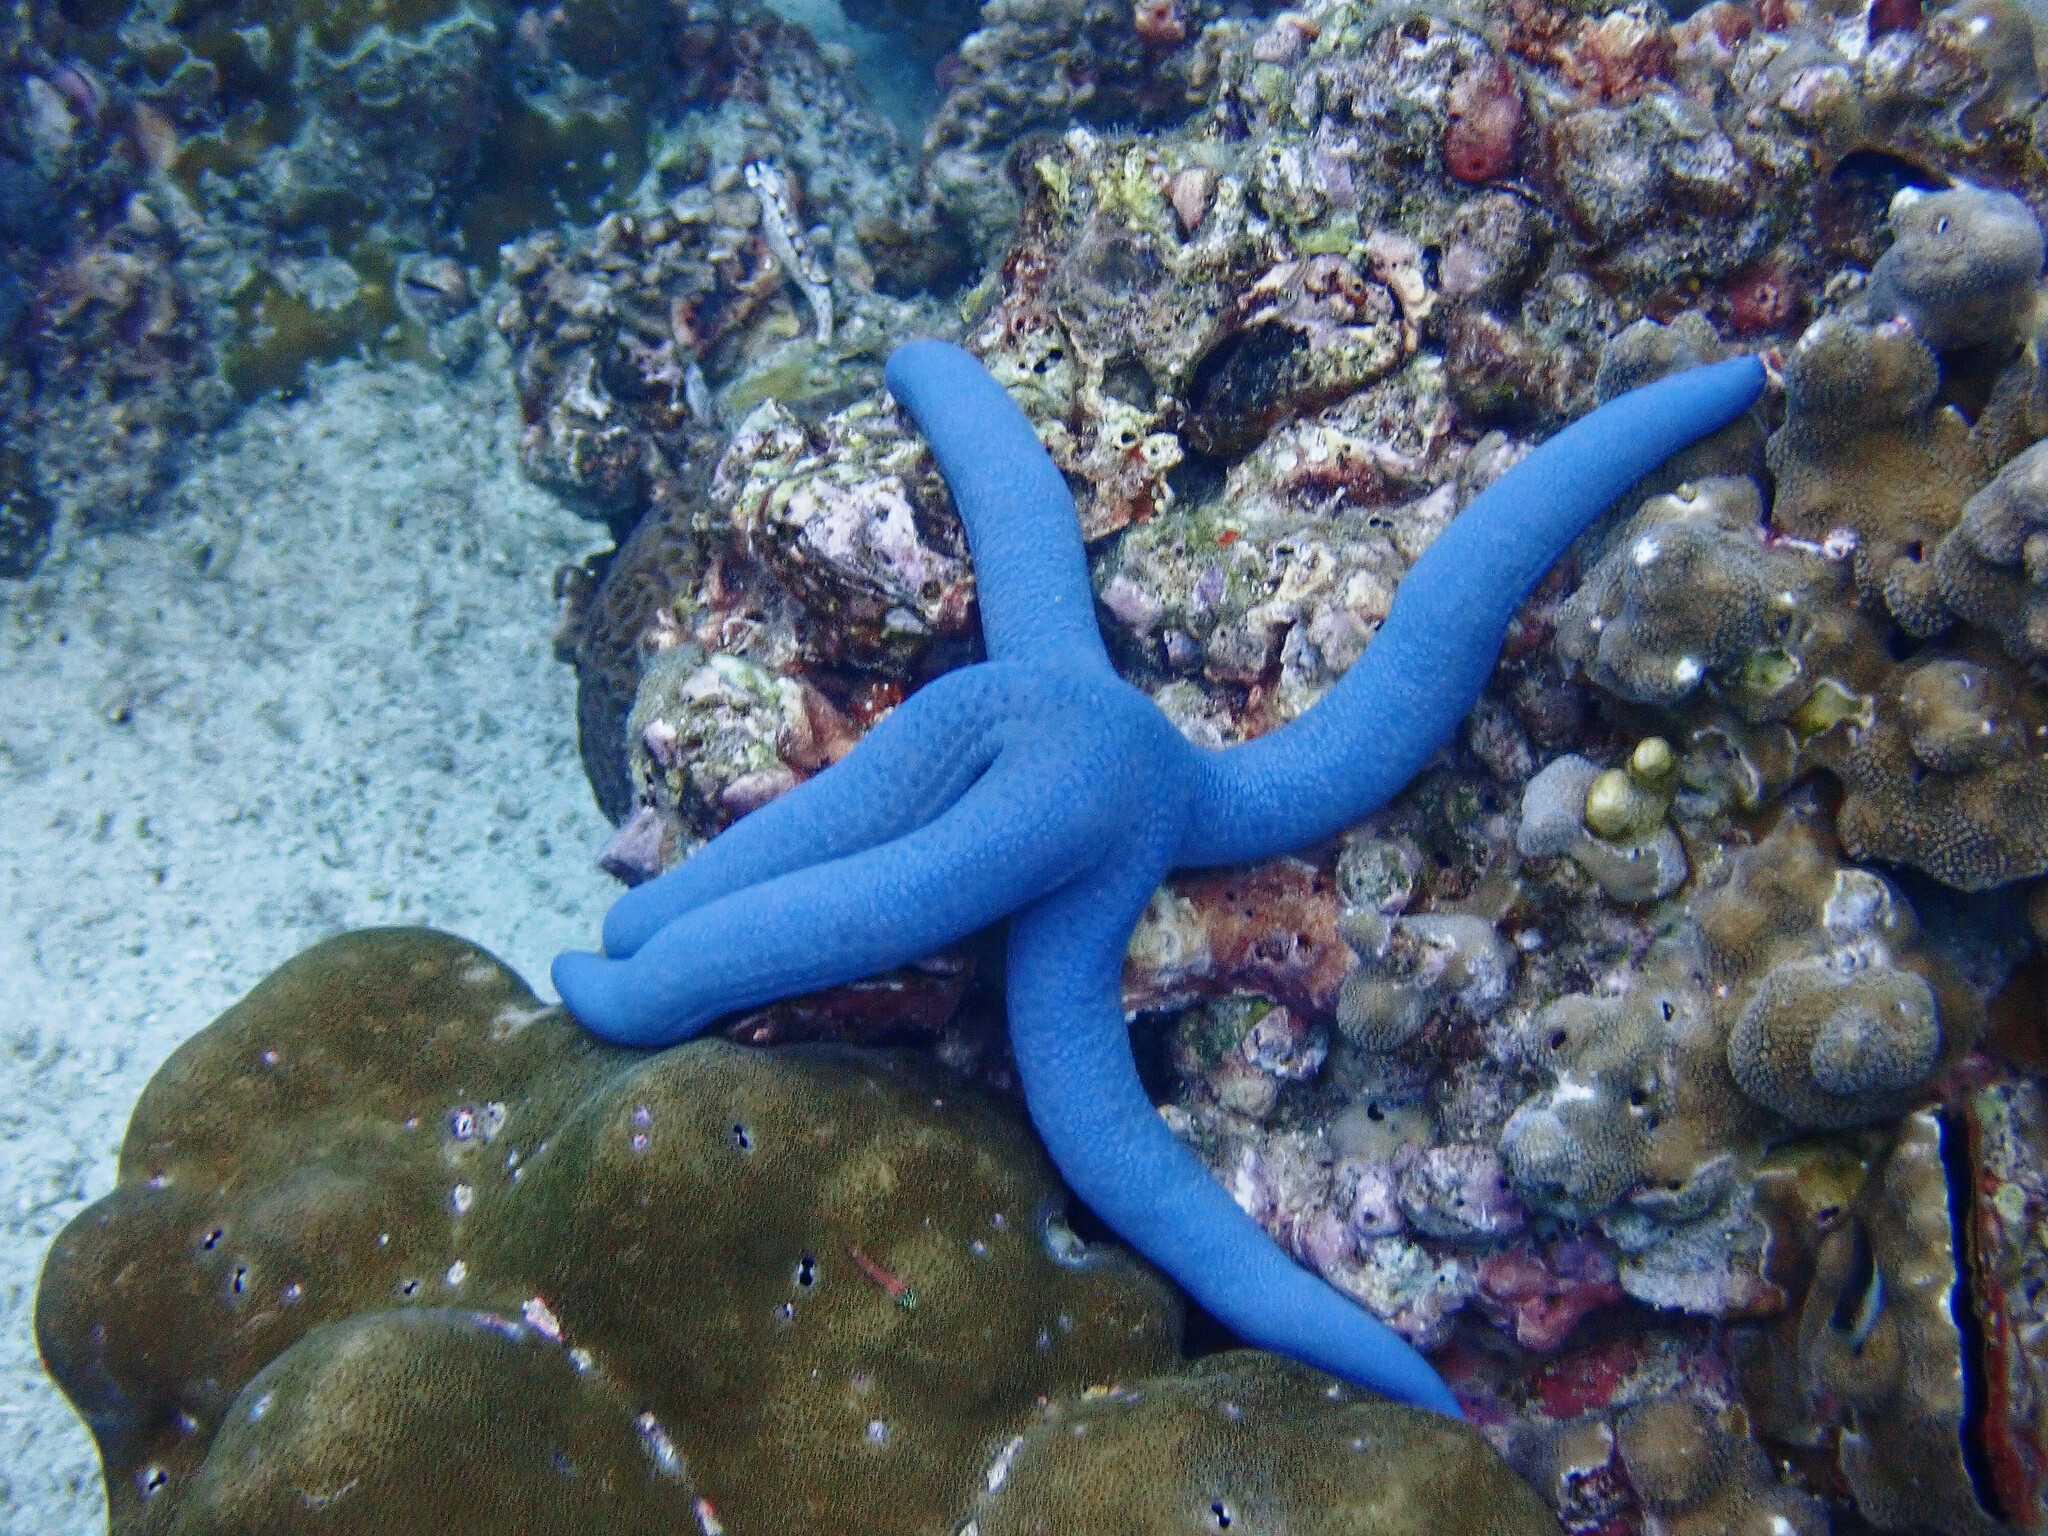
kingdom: Animalia
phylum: Echinodermata
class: Asteroidea
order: Valvatida
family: Ophidiasteridae
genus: Linckia
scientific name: Linckia laevigata
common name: Azure sea star
